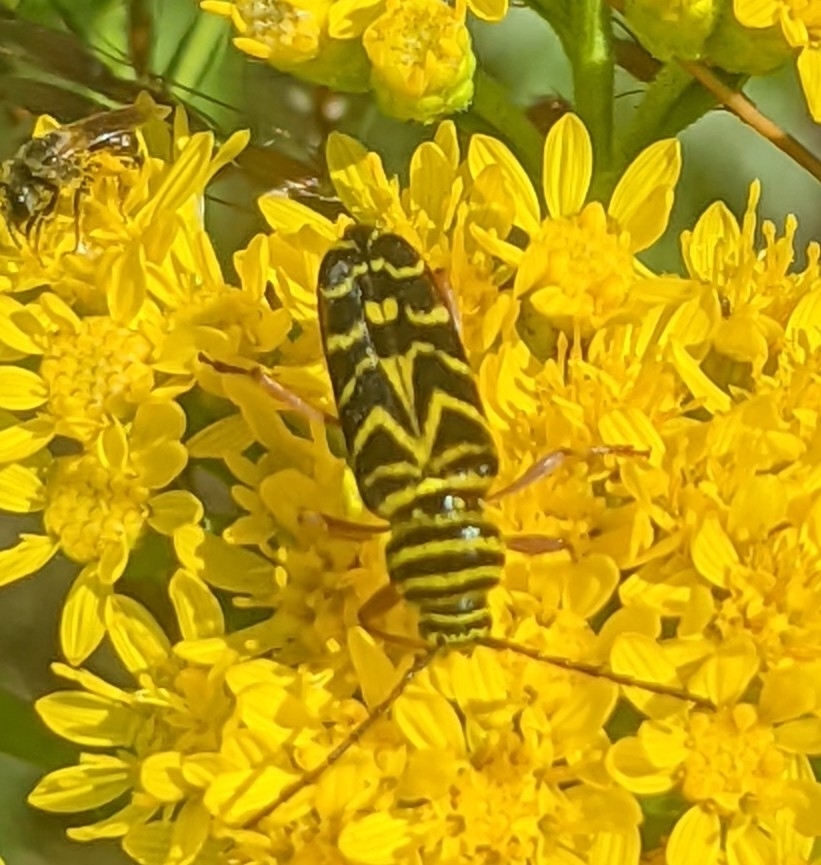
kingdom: Animalia
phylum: Arthropoda
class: Insecta
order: Coleoptera
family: Cerambycidae
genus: Megacyllene
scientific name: Megacyllene robiniae
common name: Locust borer
